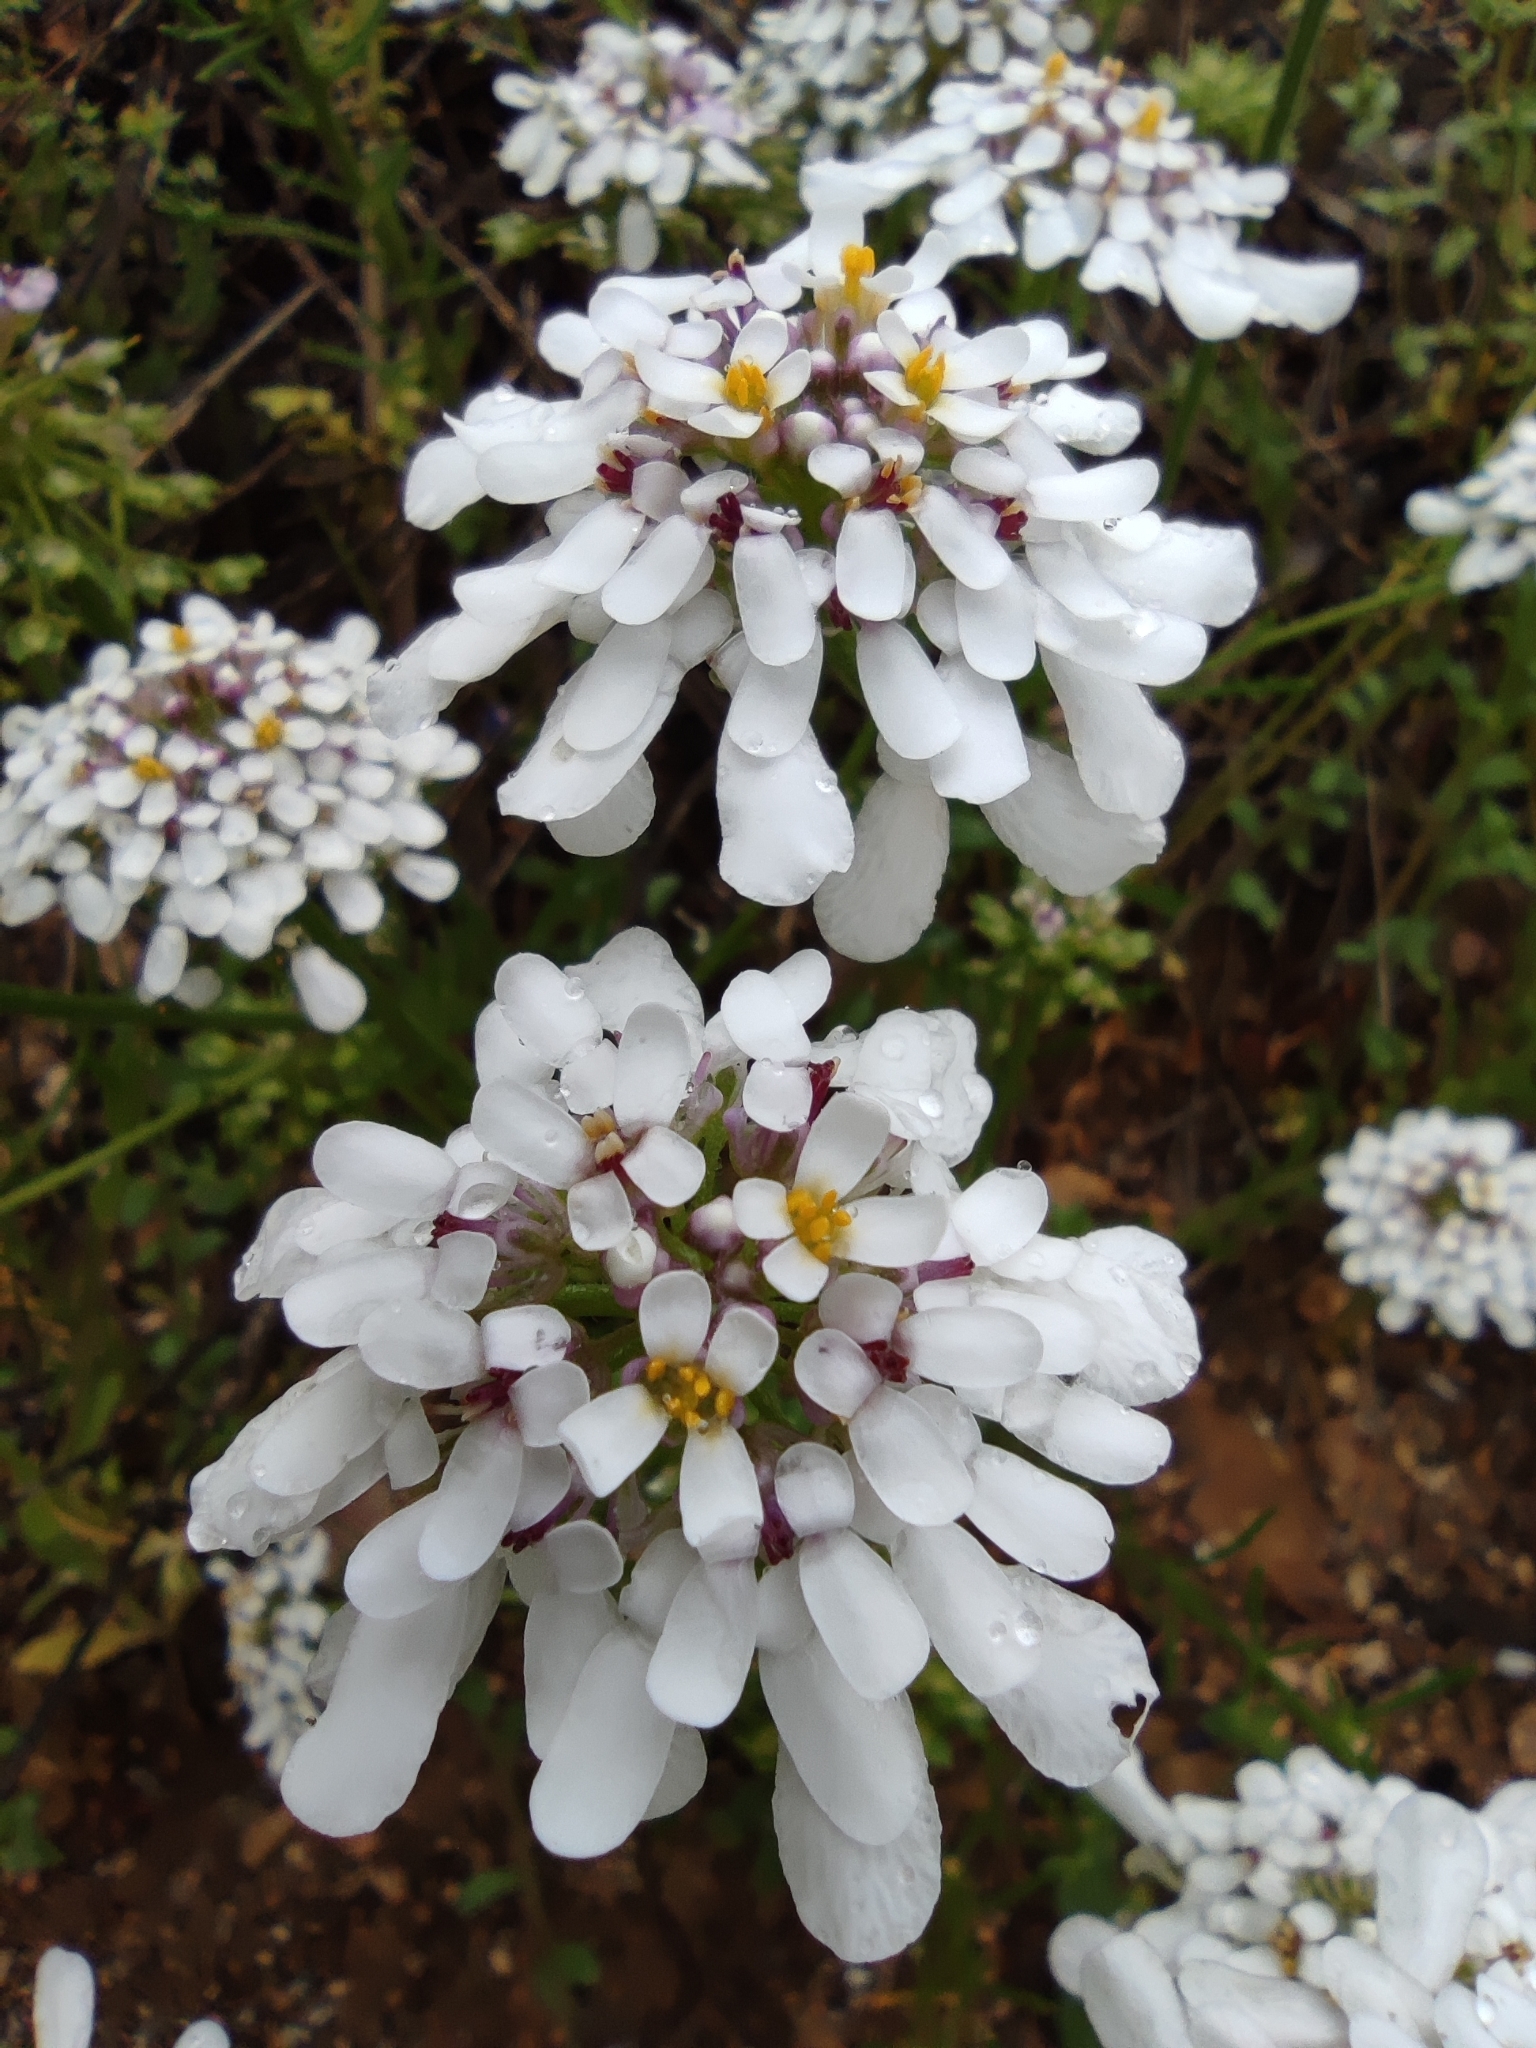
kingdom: Plantae
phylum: Tracheophyta
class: Magnoliopsida
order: Brassicales
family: Brassicaceae
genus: Iberis
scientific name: Iberis pectinata
